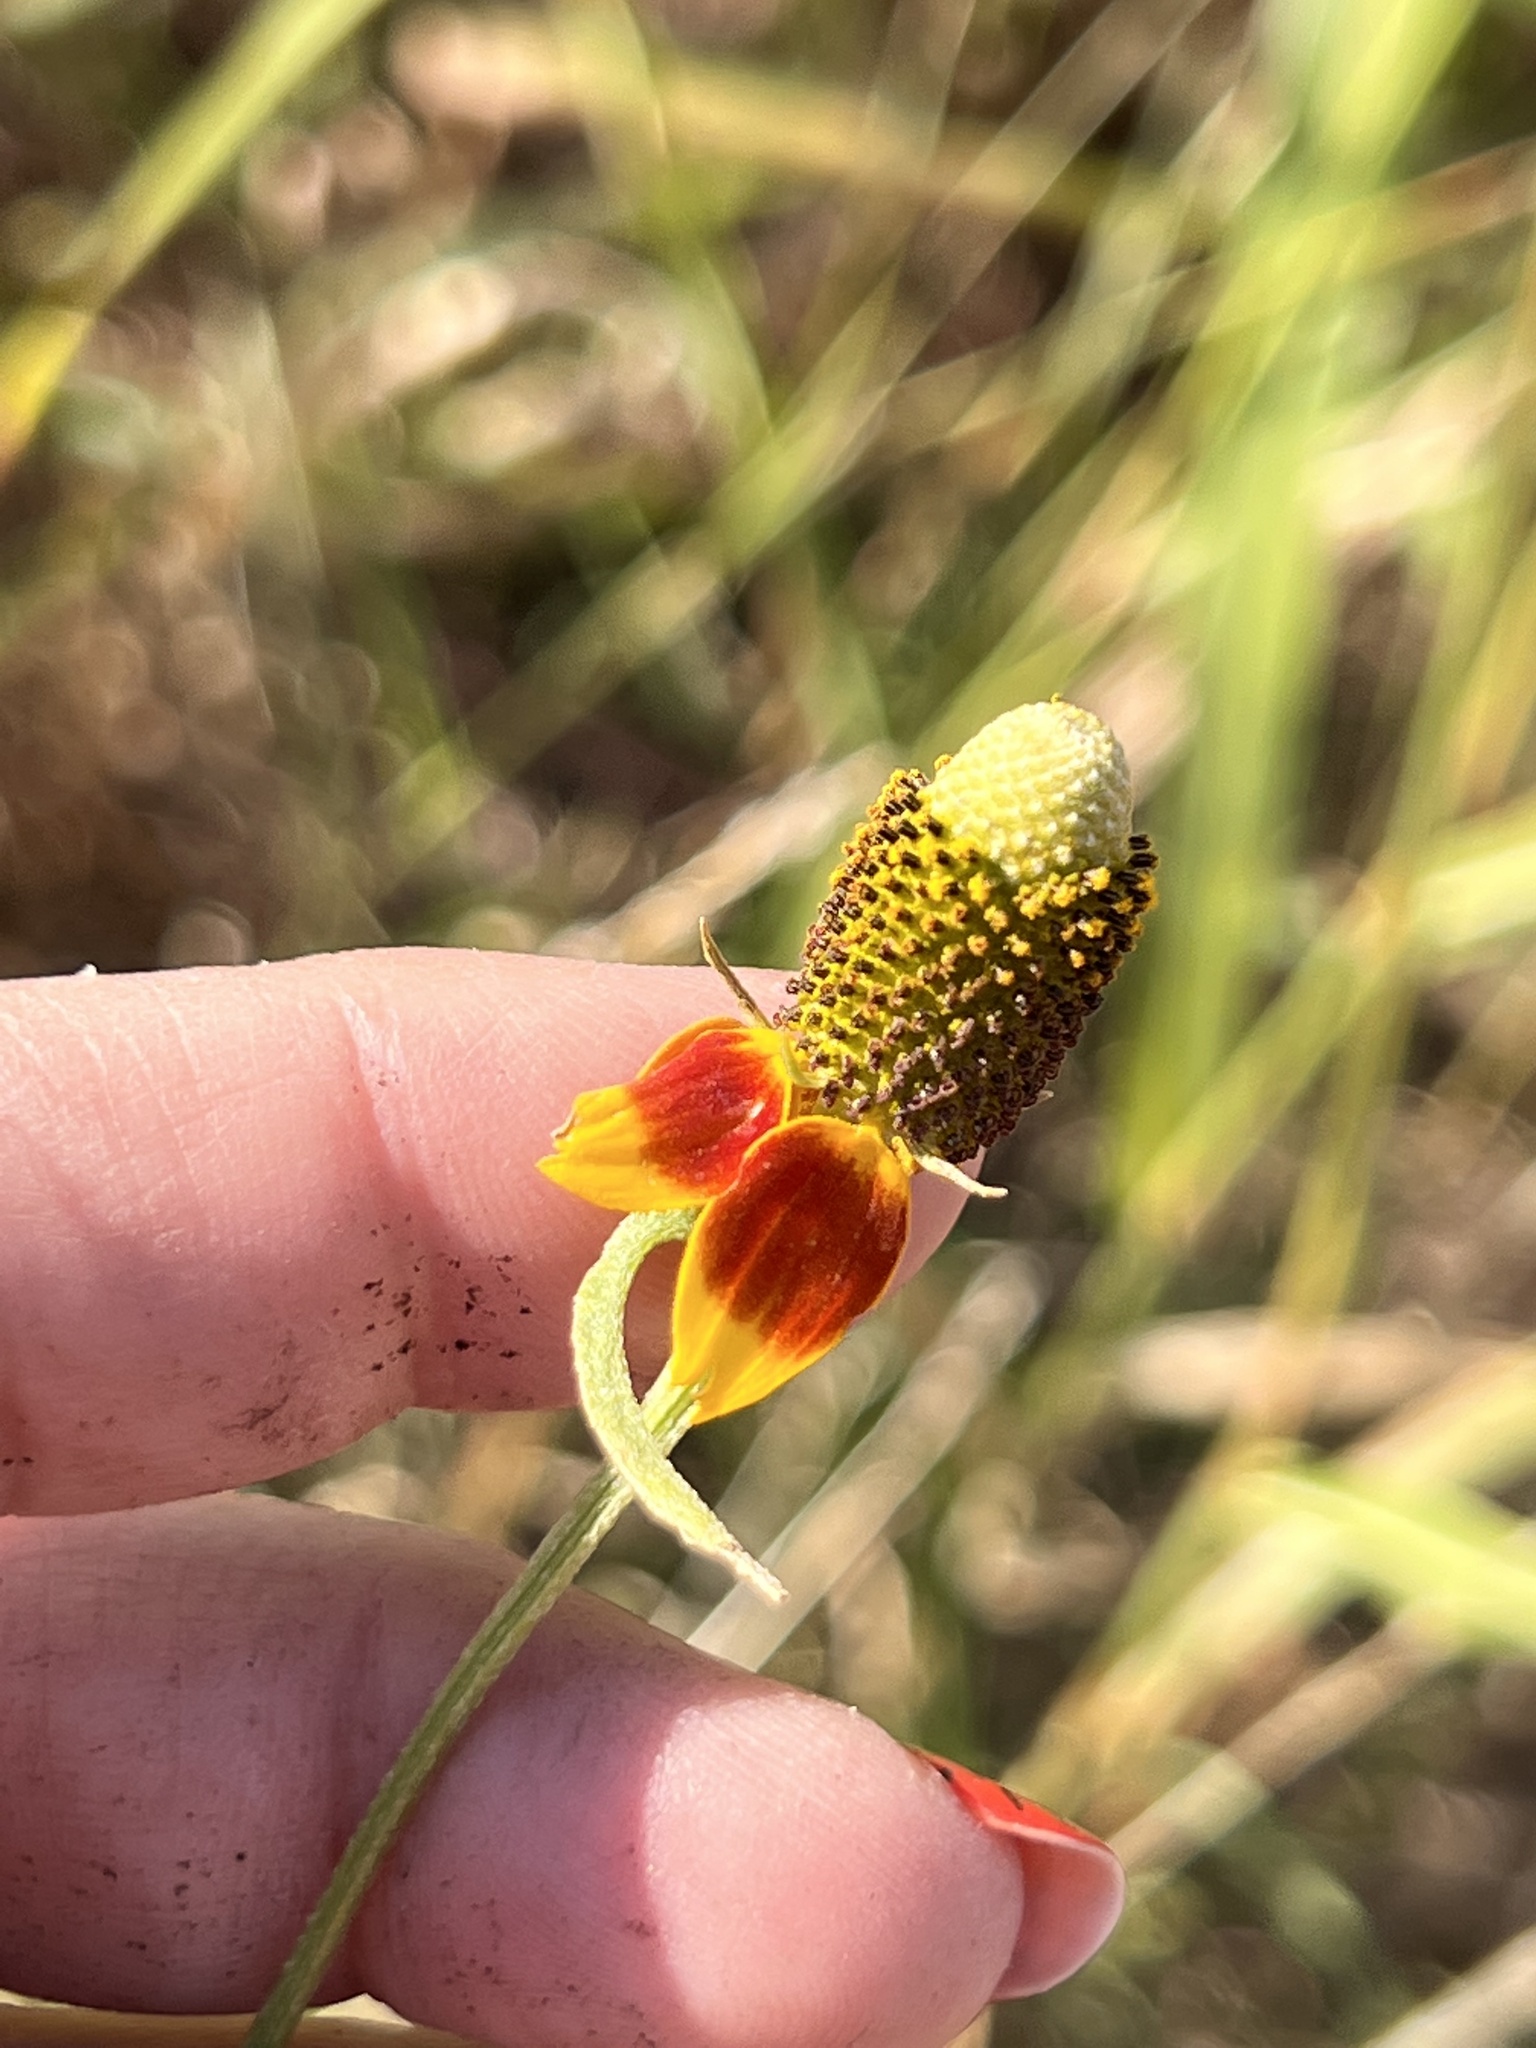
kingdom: Plantae
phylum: Tracheophyta
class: Magnoliopsida
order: Asterales
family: Asteraceae
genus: Ratibida
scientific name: Ratibida columnifera
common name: Prairie coneflower
